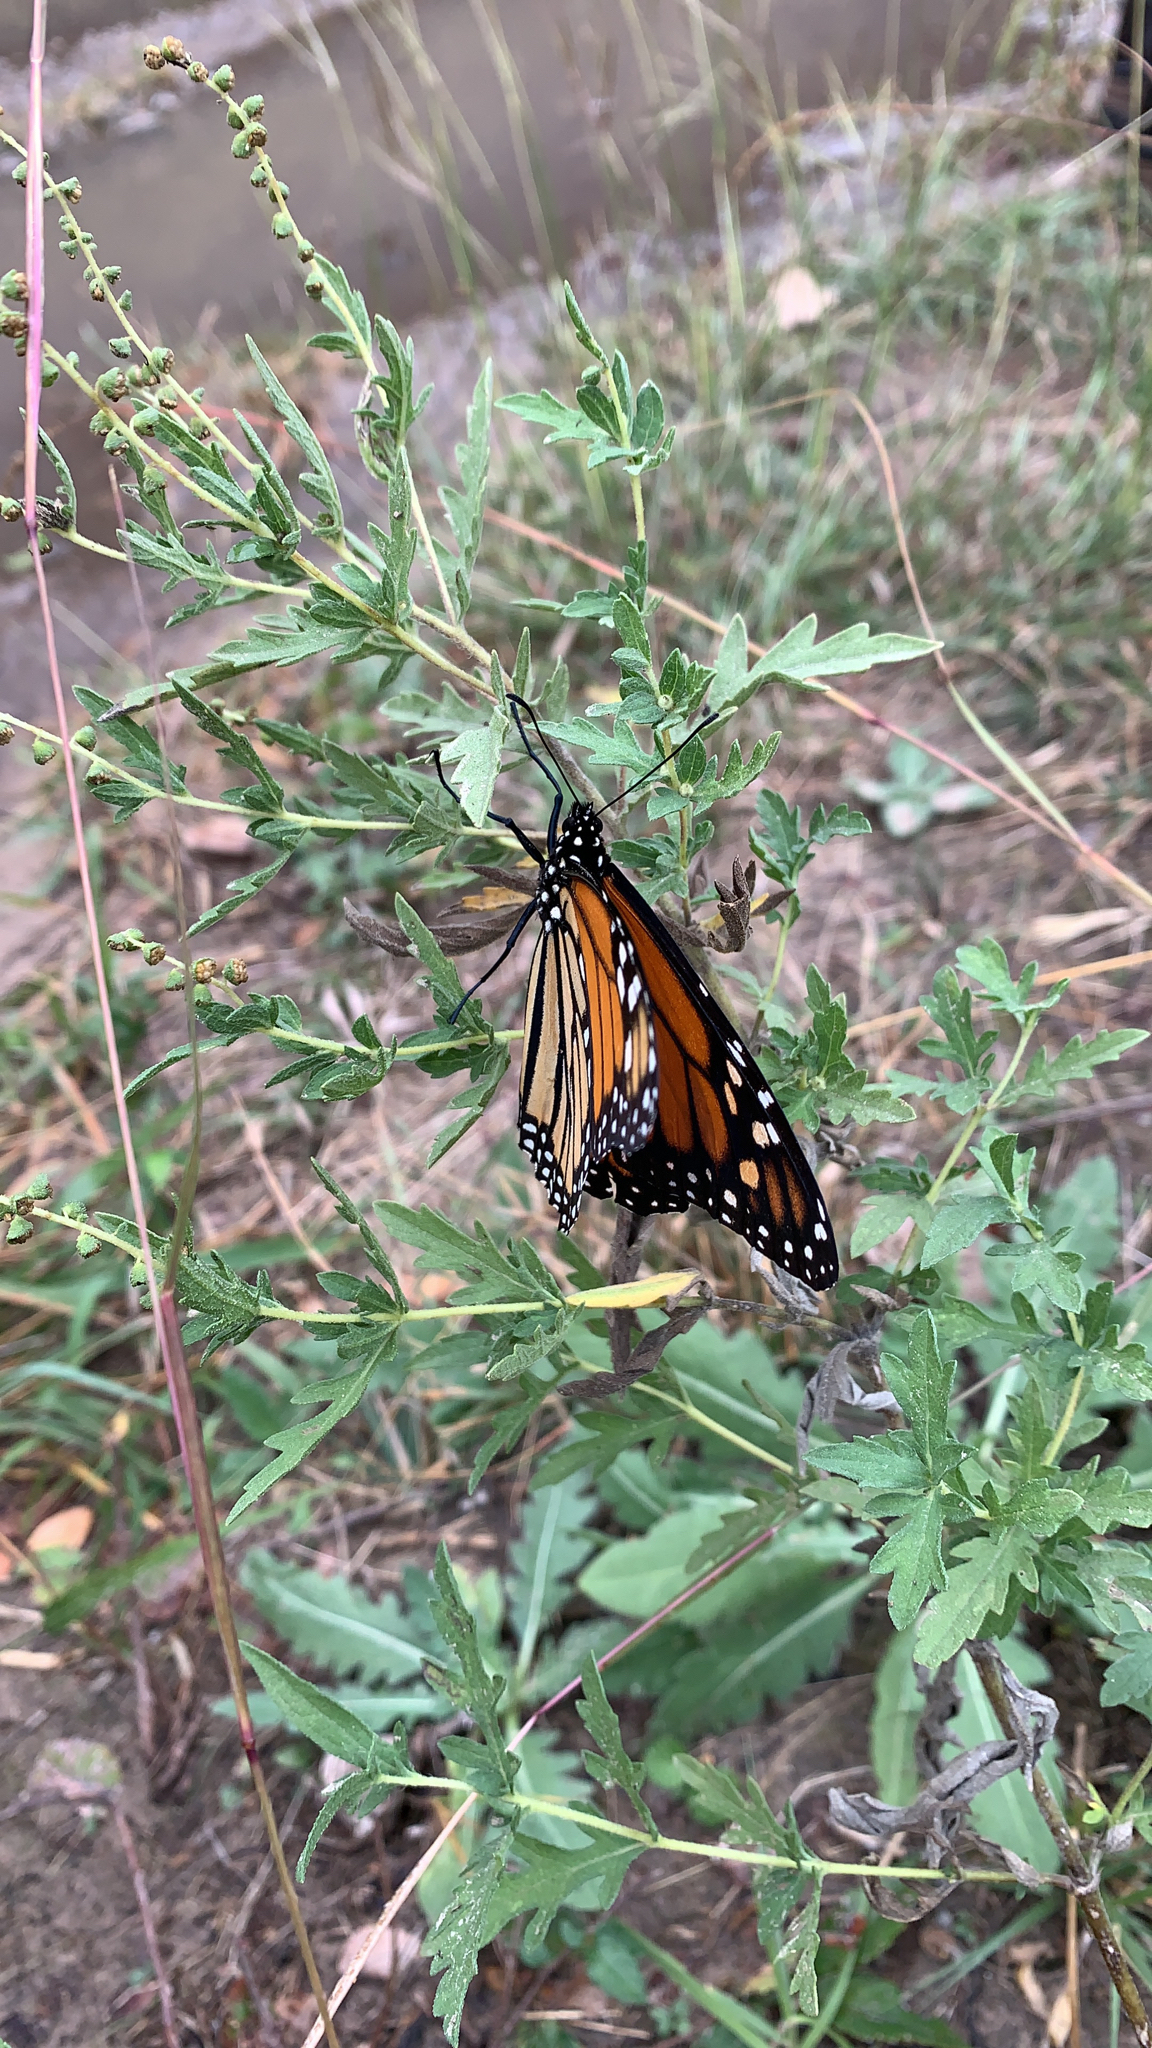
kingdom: Animalia
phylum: Arthropoda
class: Insecta
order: Lepidoptera
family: Nymphalidae
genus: Danaus
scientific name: Danaus plexippus
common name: Monarch
